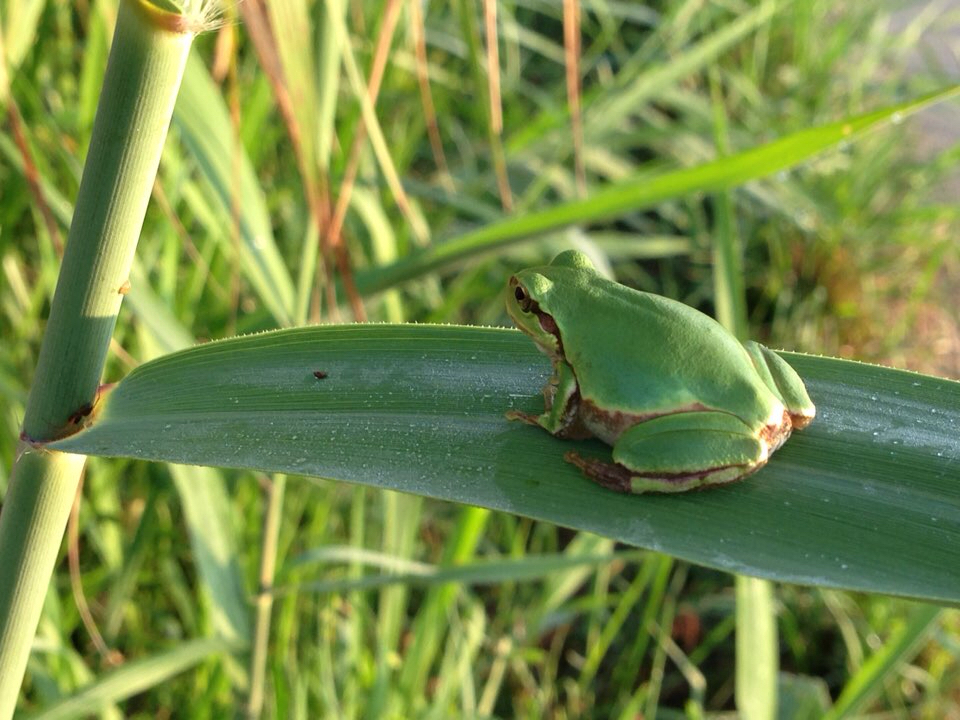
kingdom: Animalia
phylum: Chordata
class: Amphibia
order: Anura
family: Hylidae
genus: Dryophytes
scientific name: Dryophytes japonicus
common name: Japanese treefrog
